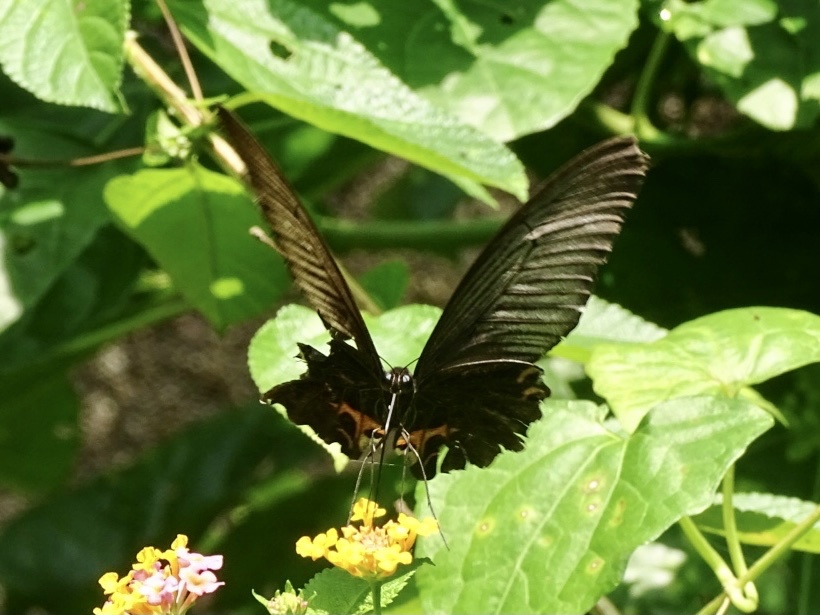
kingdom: Animalia
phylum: Arthropoda
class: Insecta
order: Lepidoptera
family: Papilionidae
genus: Papilio
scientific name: Papilio protenor
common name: Spangle
